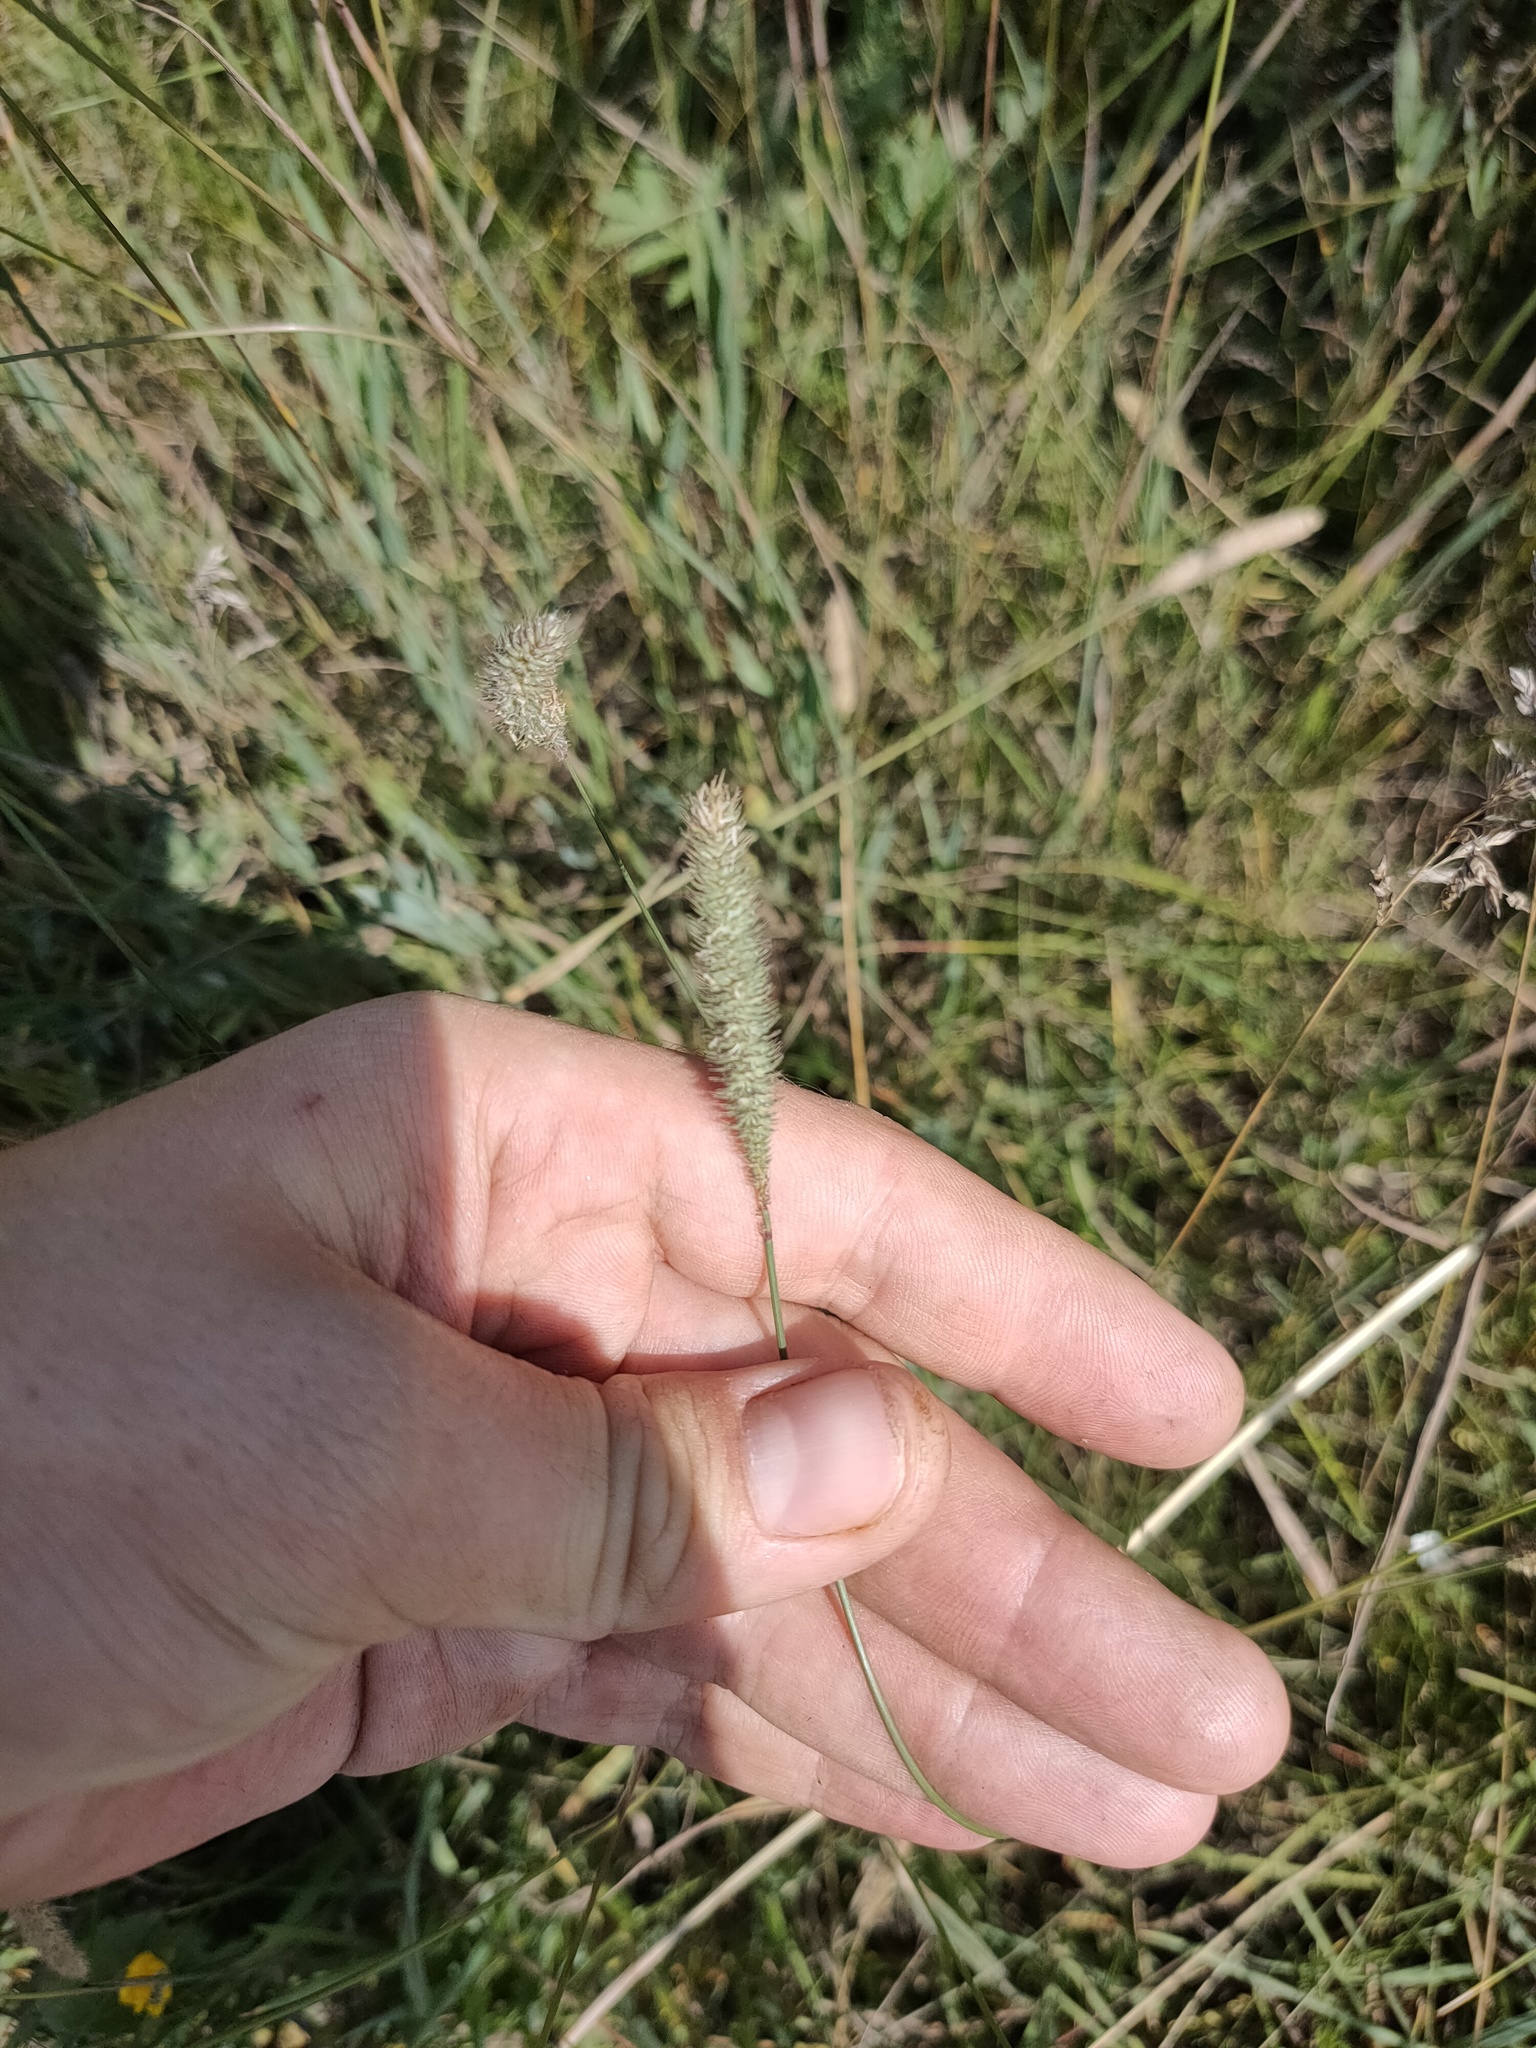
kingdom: Plantae
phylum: Tracheophyta
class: Liliopsida
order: Poales
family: Poaceae
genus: Phleum
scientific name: Phleum pratense
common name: Timothy grass
